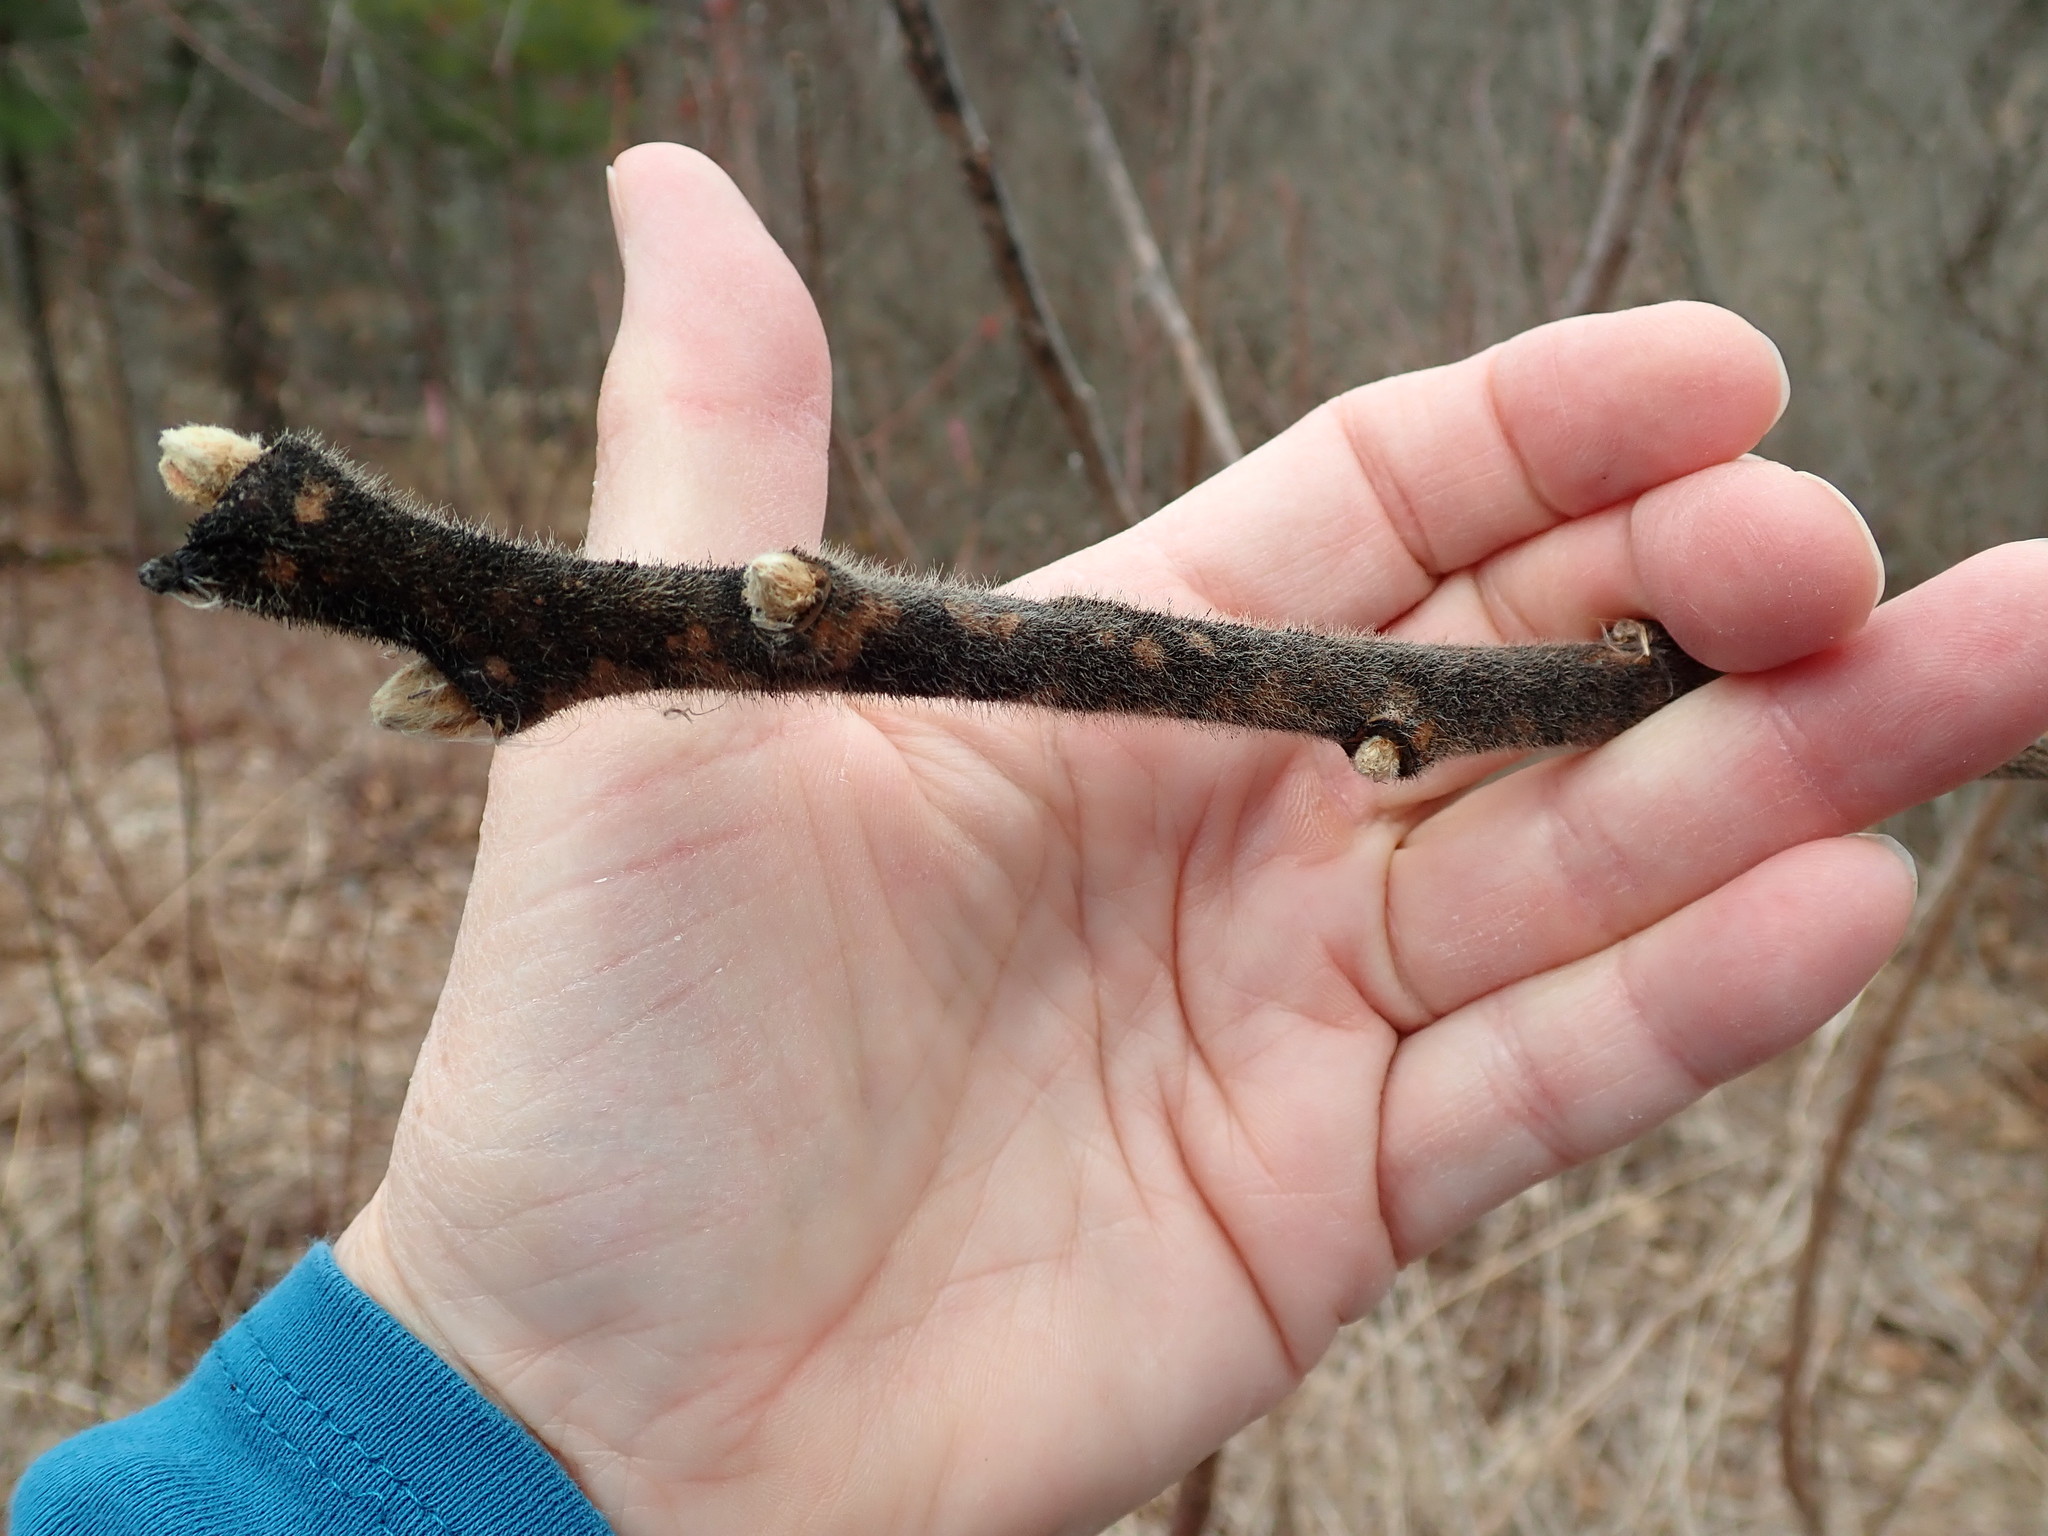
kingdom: Plantae
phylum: Tracheophyta
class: Magnoliopsida
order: Sapindales
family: Anacardiaceae
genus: Rhus
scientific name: Rhus typhina
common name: Staghorn sumac
